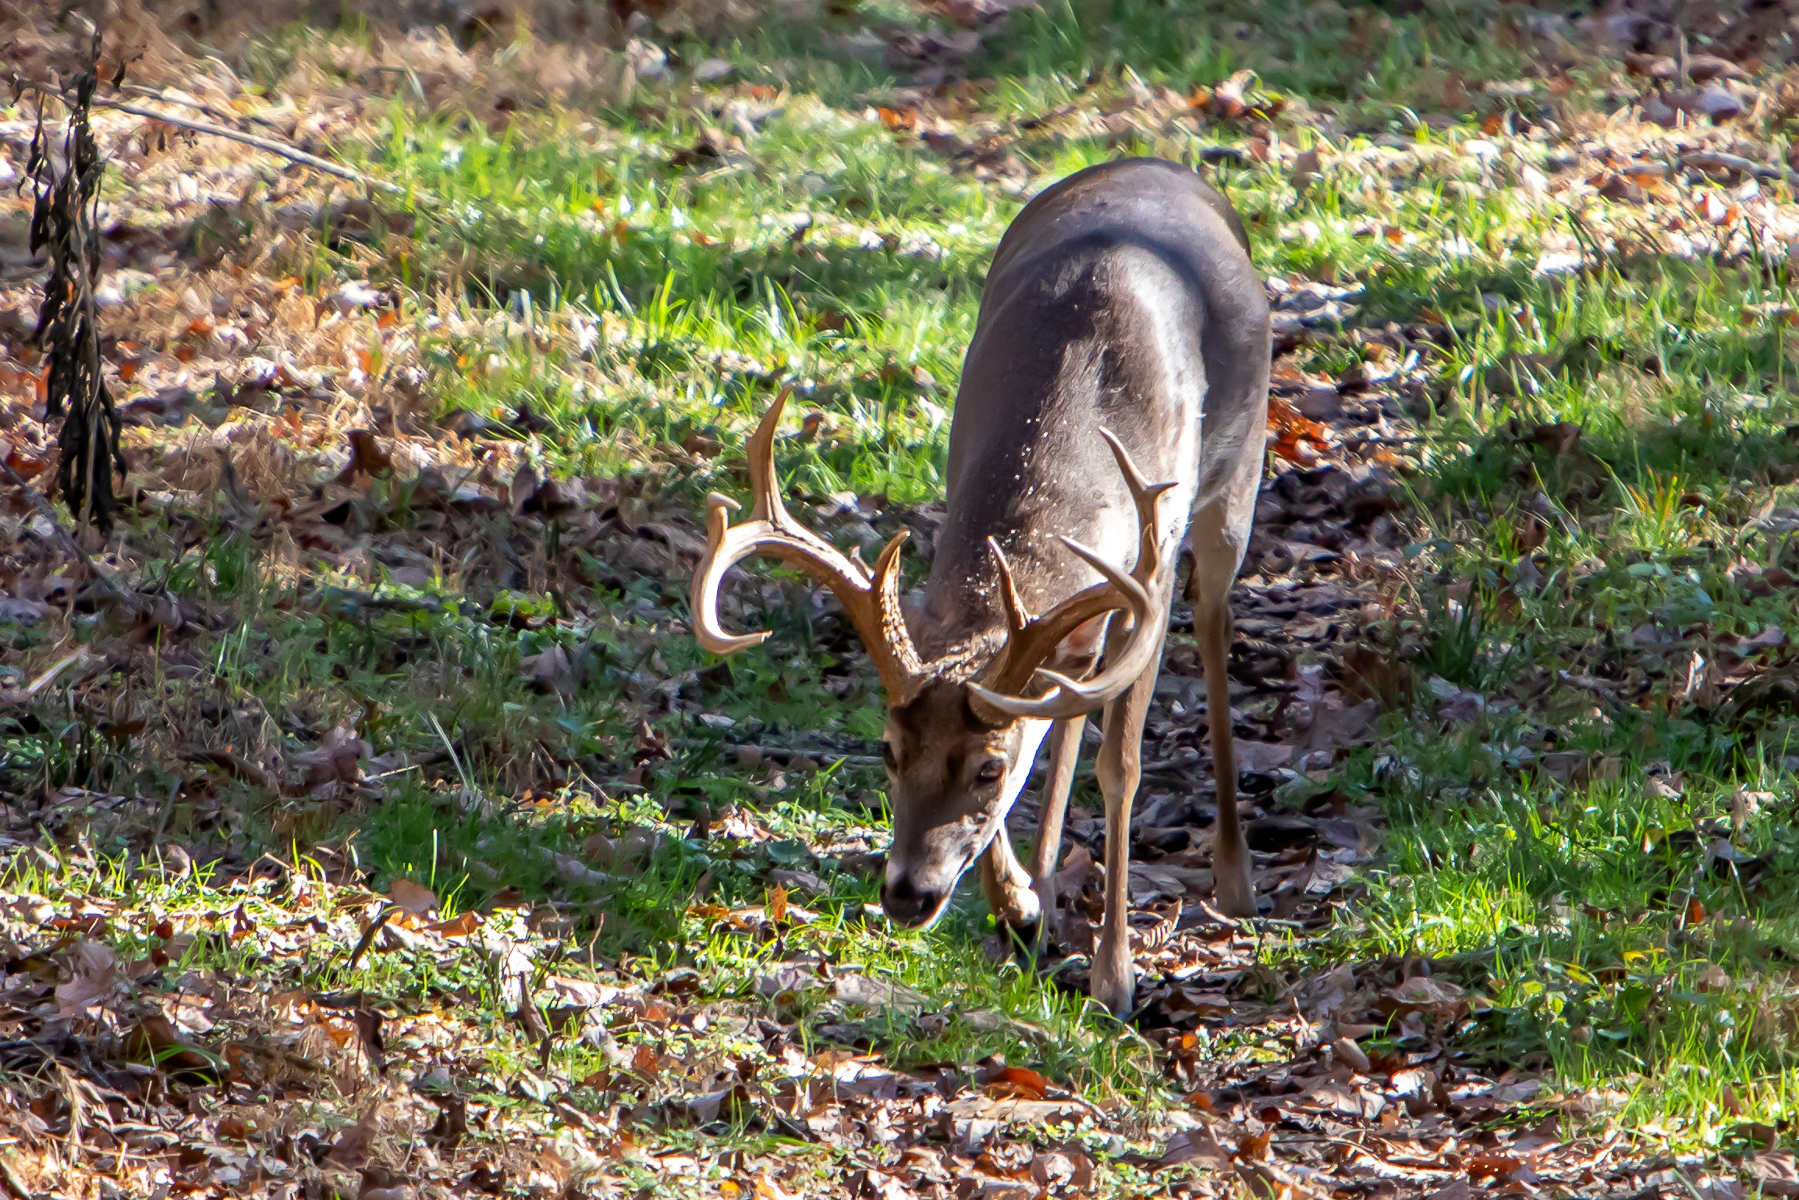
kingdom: Animalia
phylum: Chordata
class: Mammalia
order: Artiodactyla
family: Cervidae
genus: Odocoileus
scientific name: Odocoileus virginianus
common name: White-tailed deer
